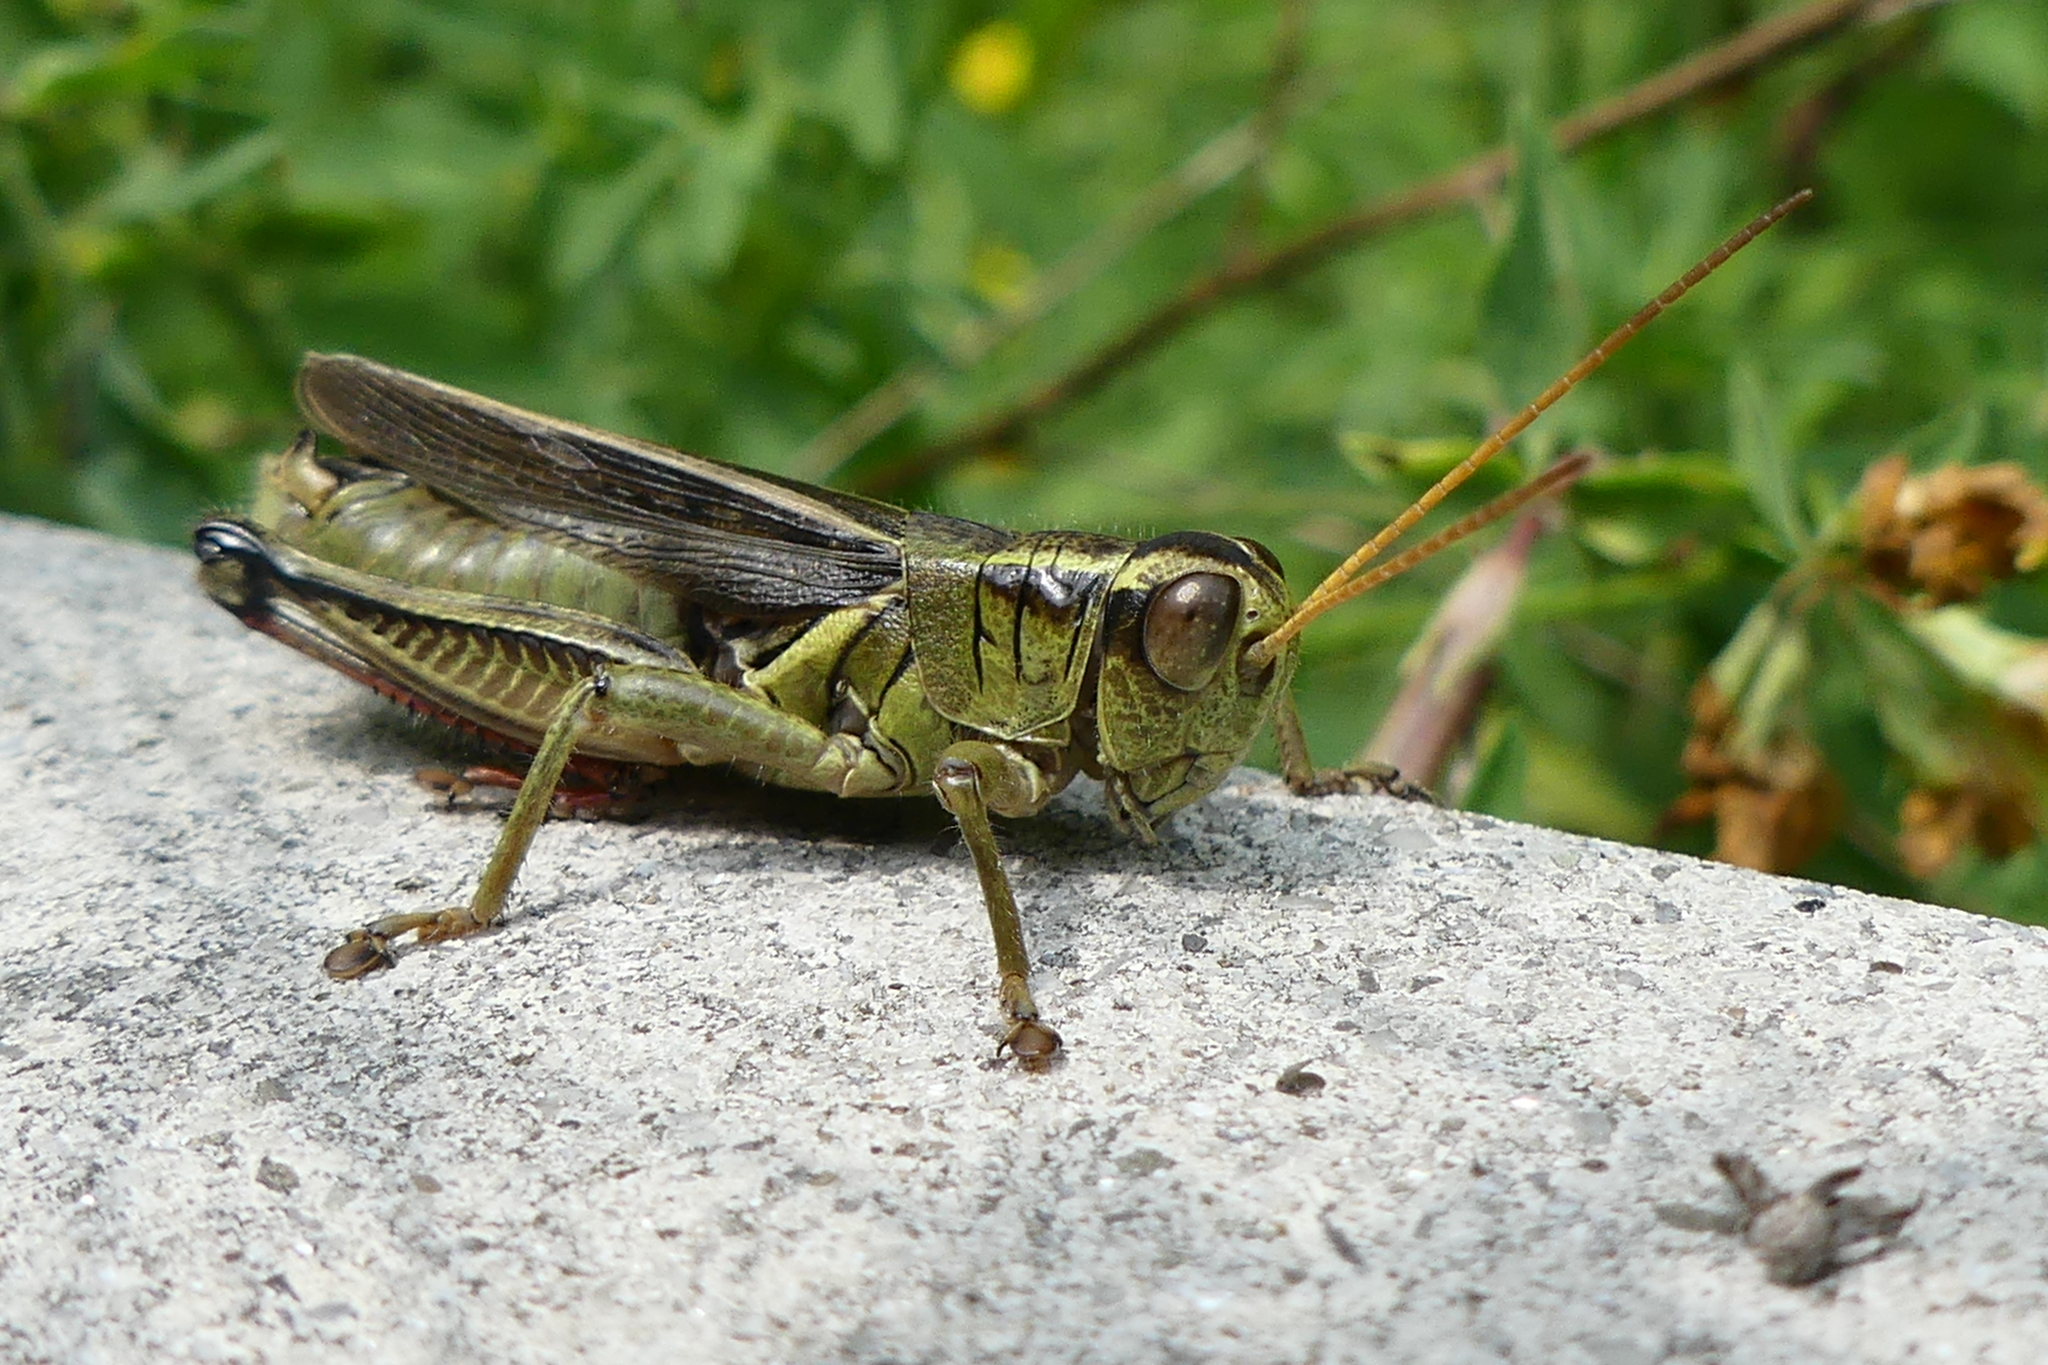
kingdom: Animalia
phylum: Arthropoda
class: Insecta
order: Orthoptera
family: Acrididae
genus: Melanoplus
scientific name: Melanoplus bivittatus
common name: Two-striped grasshopper
